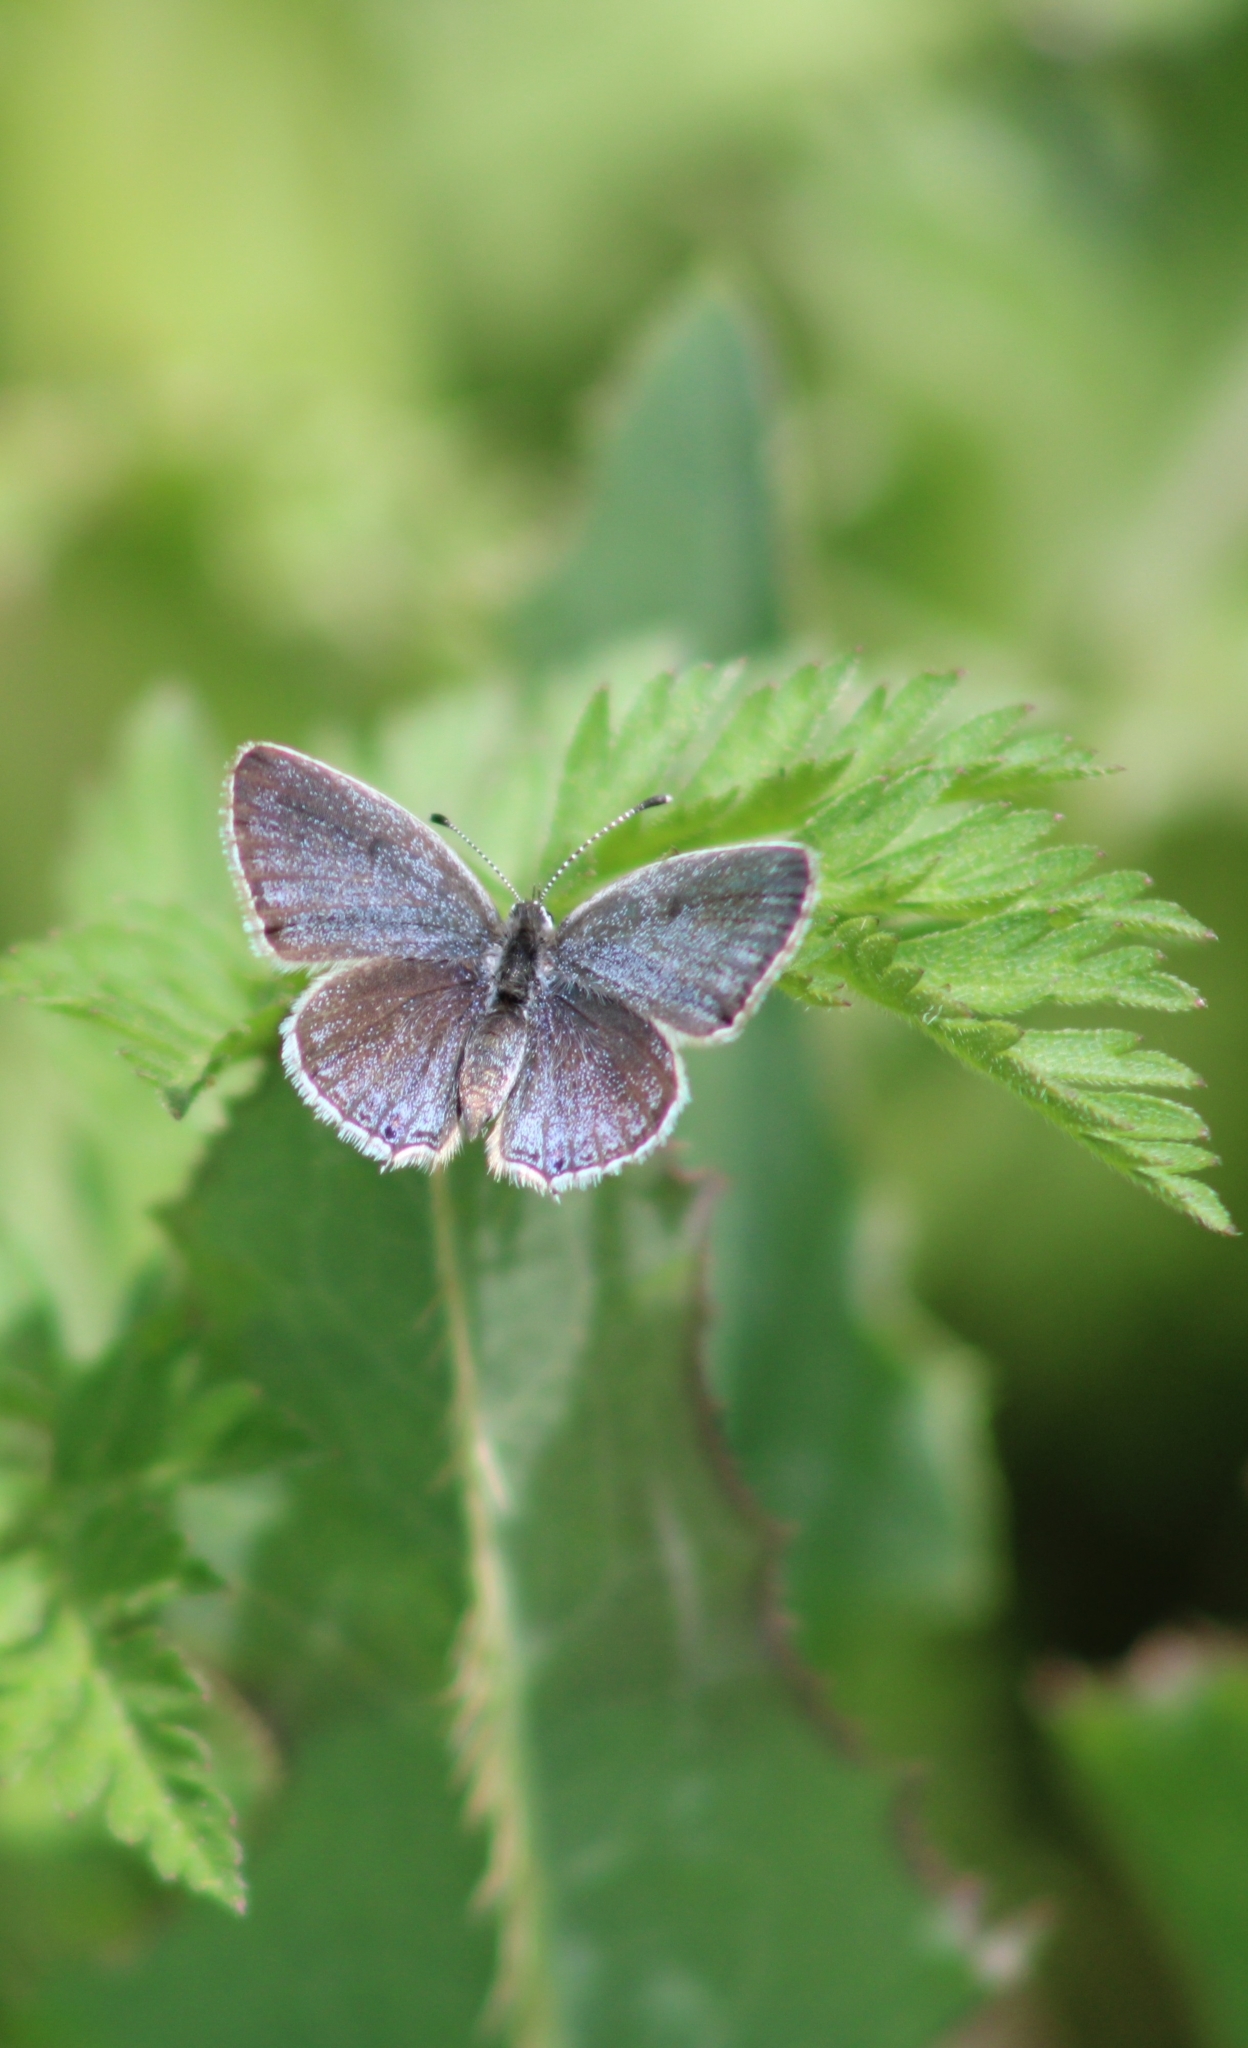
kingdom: Animalia
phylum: Arthropoda
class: Insecta
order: Lepidoptera
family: Lycaenidae
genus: Elkalyce
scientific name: Elkalyce comyntas
